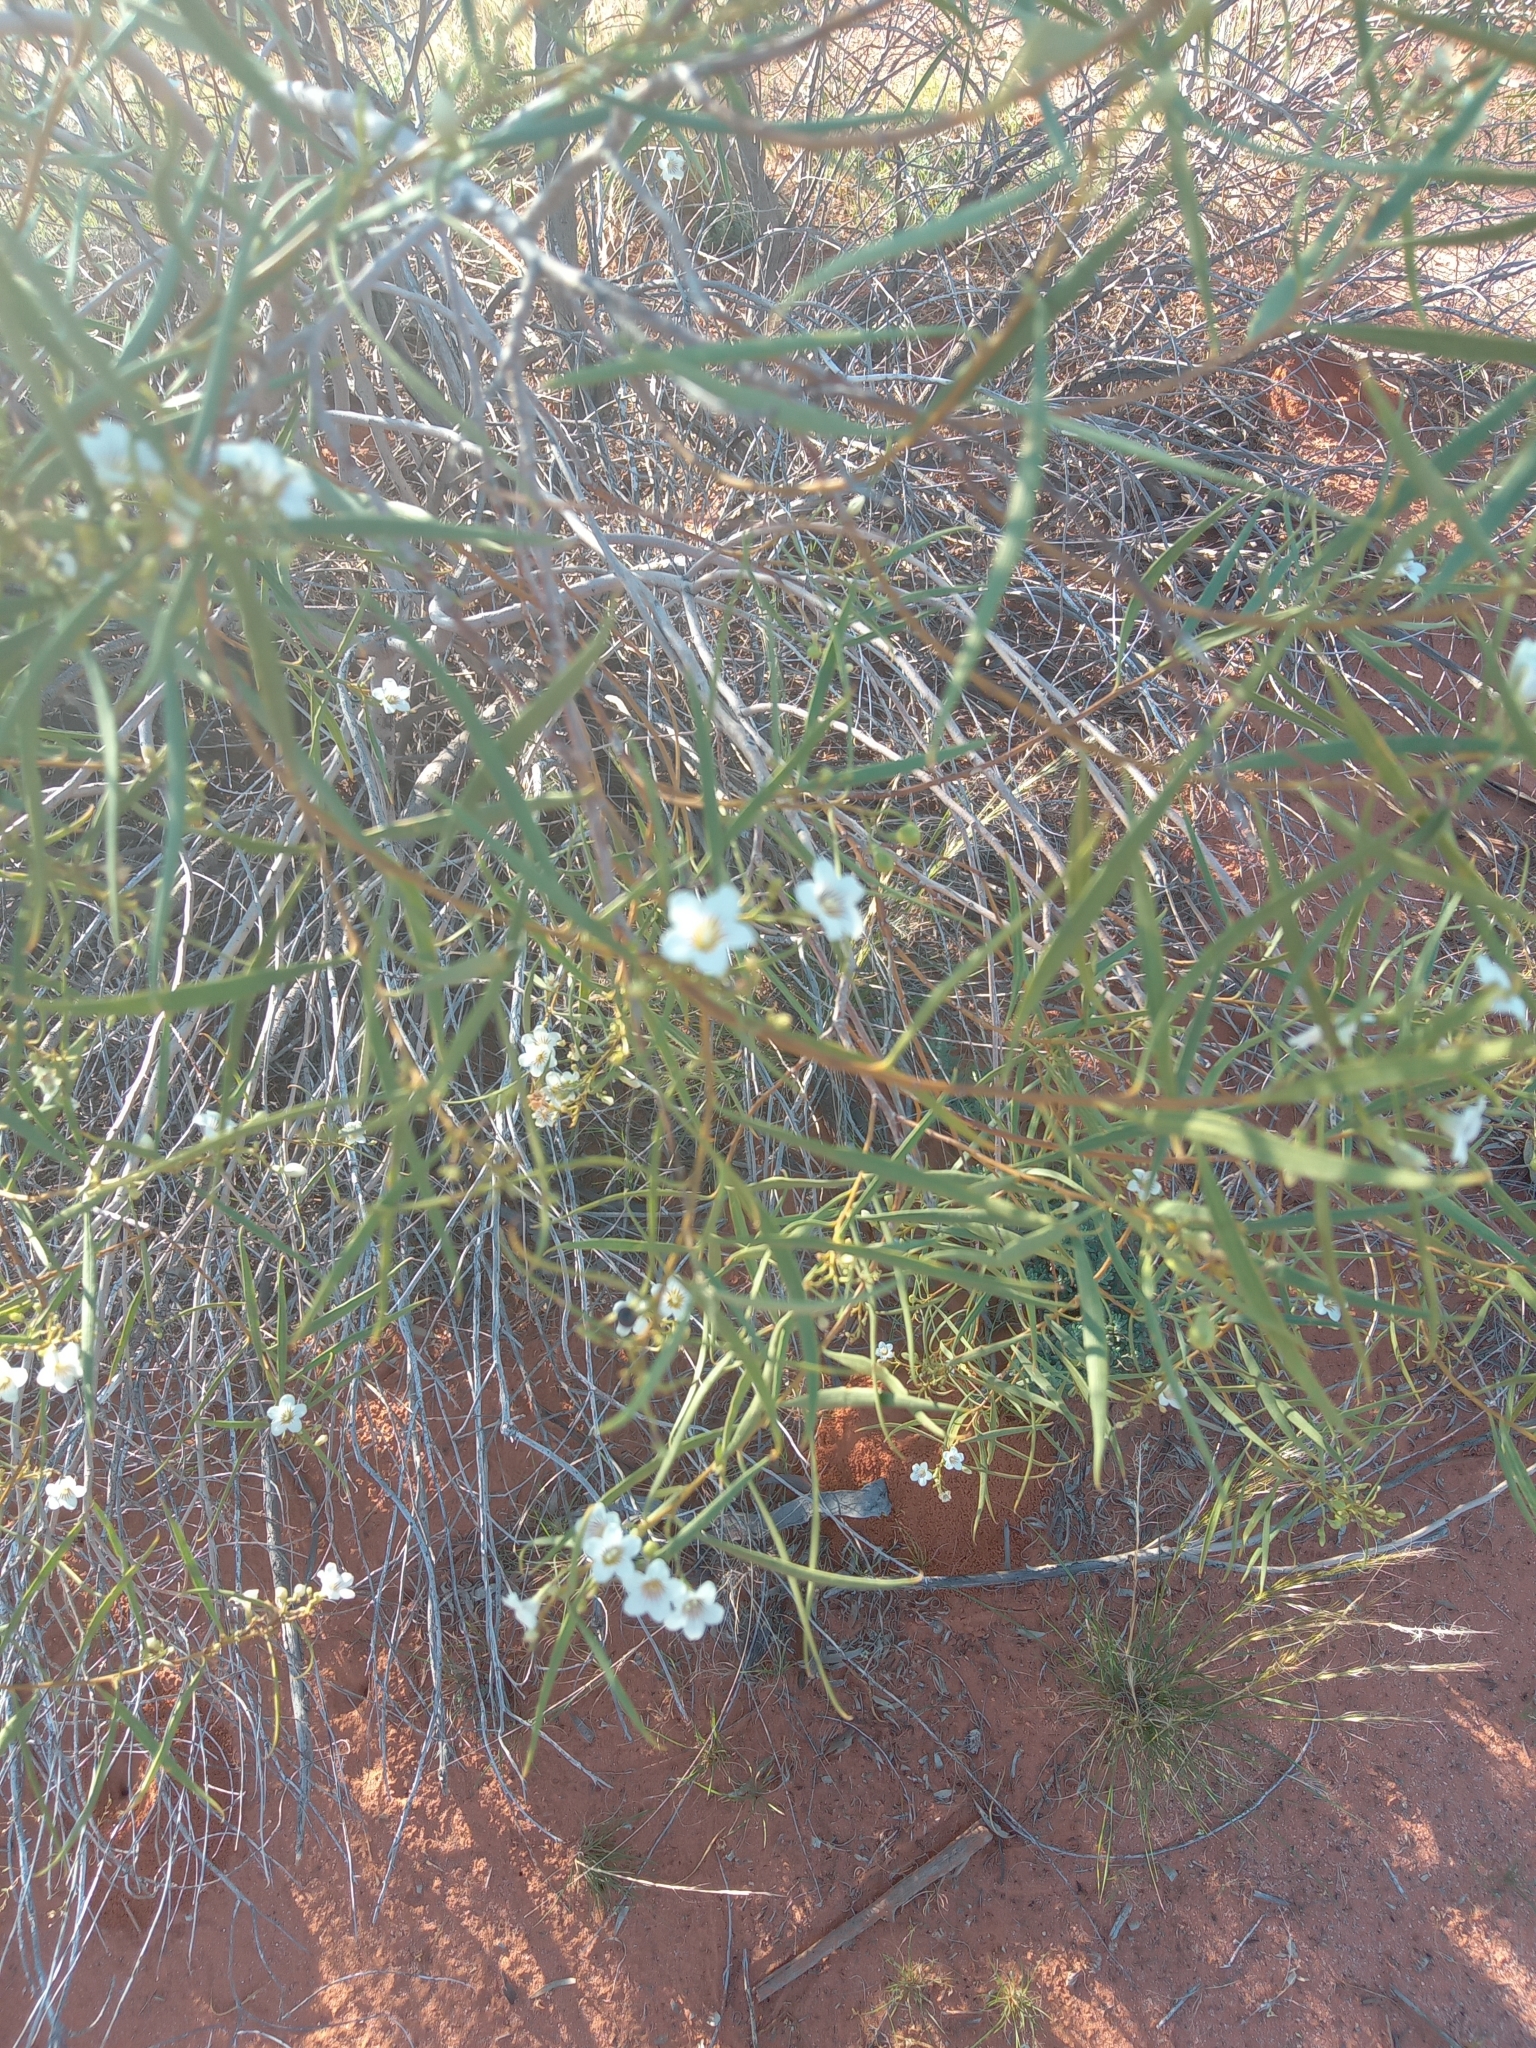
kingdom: Plantae
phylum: Tracheophyta
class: Magnoliopsida
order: Solanales
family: Solanaceae
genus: Duboisia
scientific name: Duboisia hopwoodii
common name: Pituri
